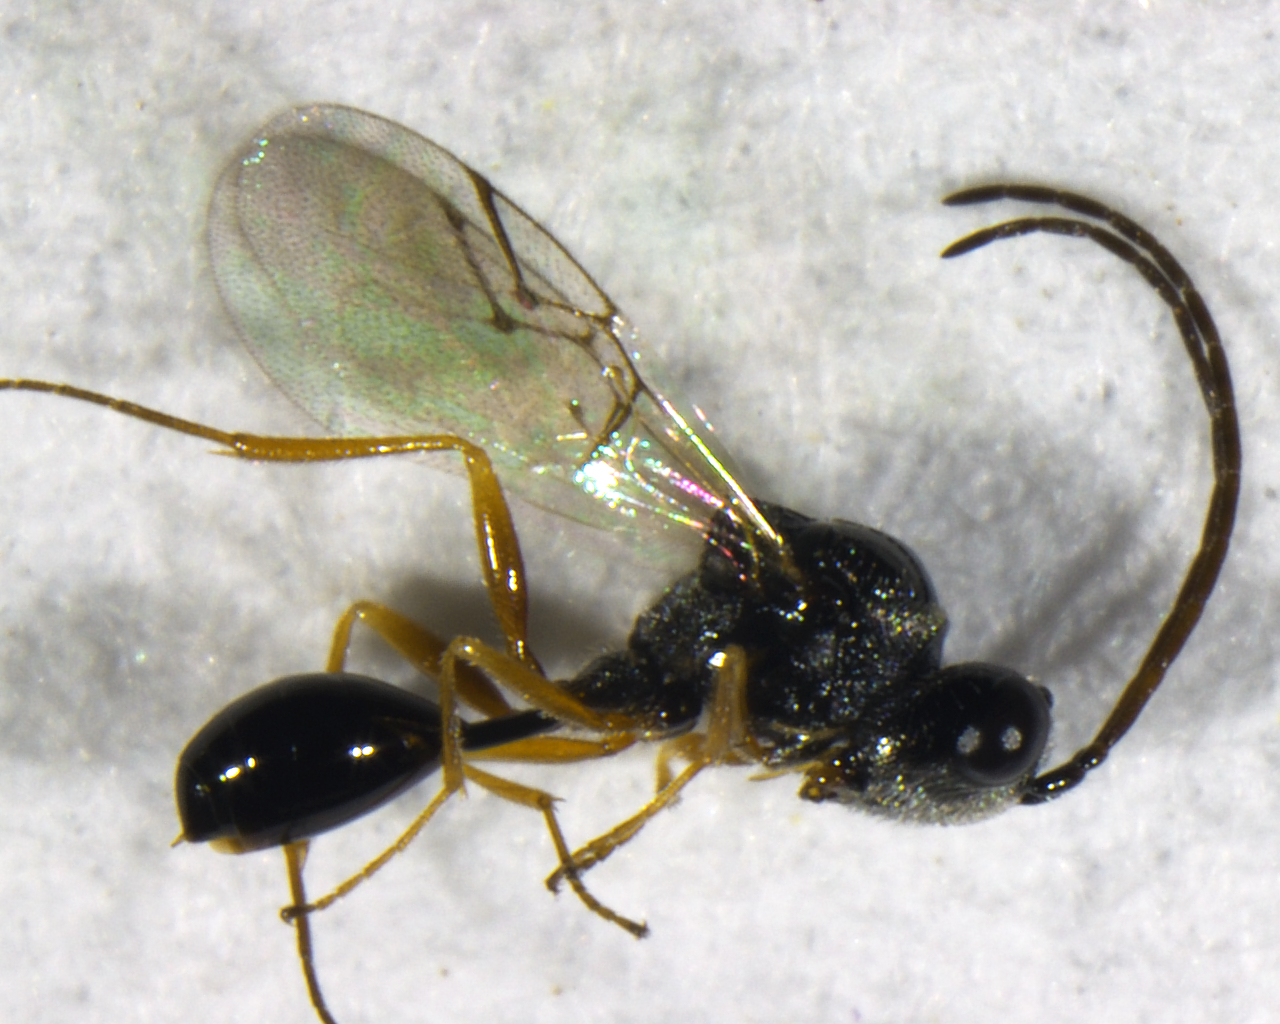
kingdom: Animalia
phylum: Arthropoda
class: Insecta
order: Hymenoptera
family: Figitidae
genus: Anacharis
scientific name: Anacharis zealandica
